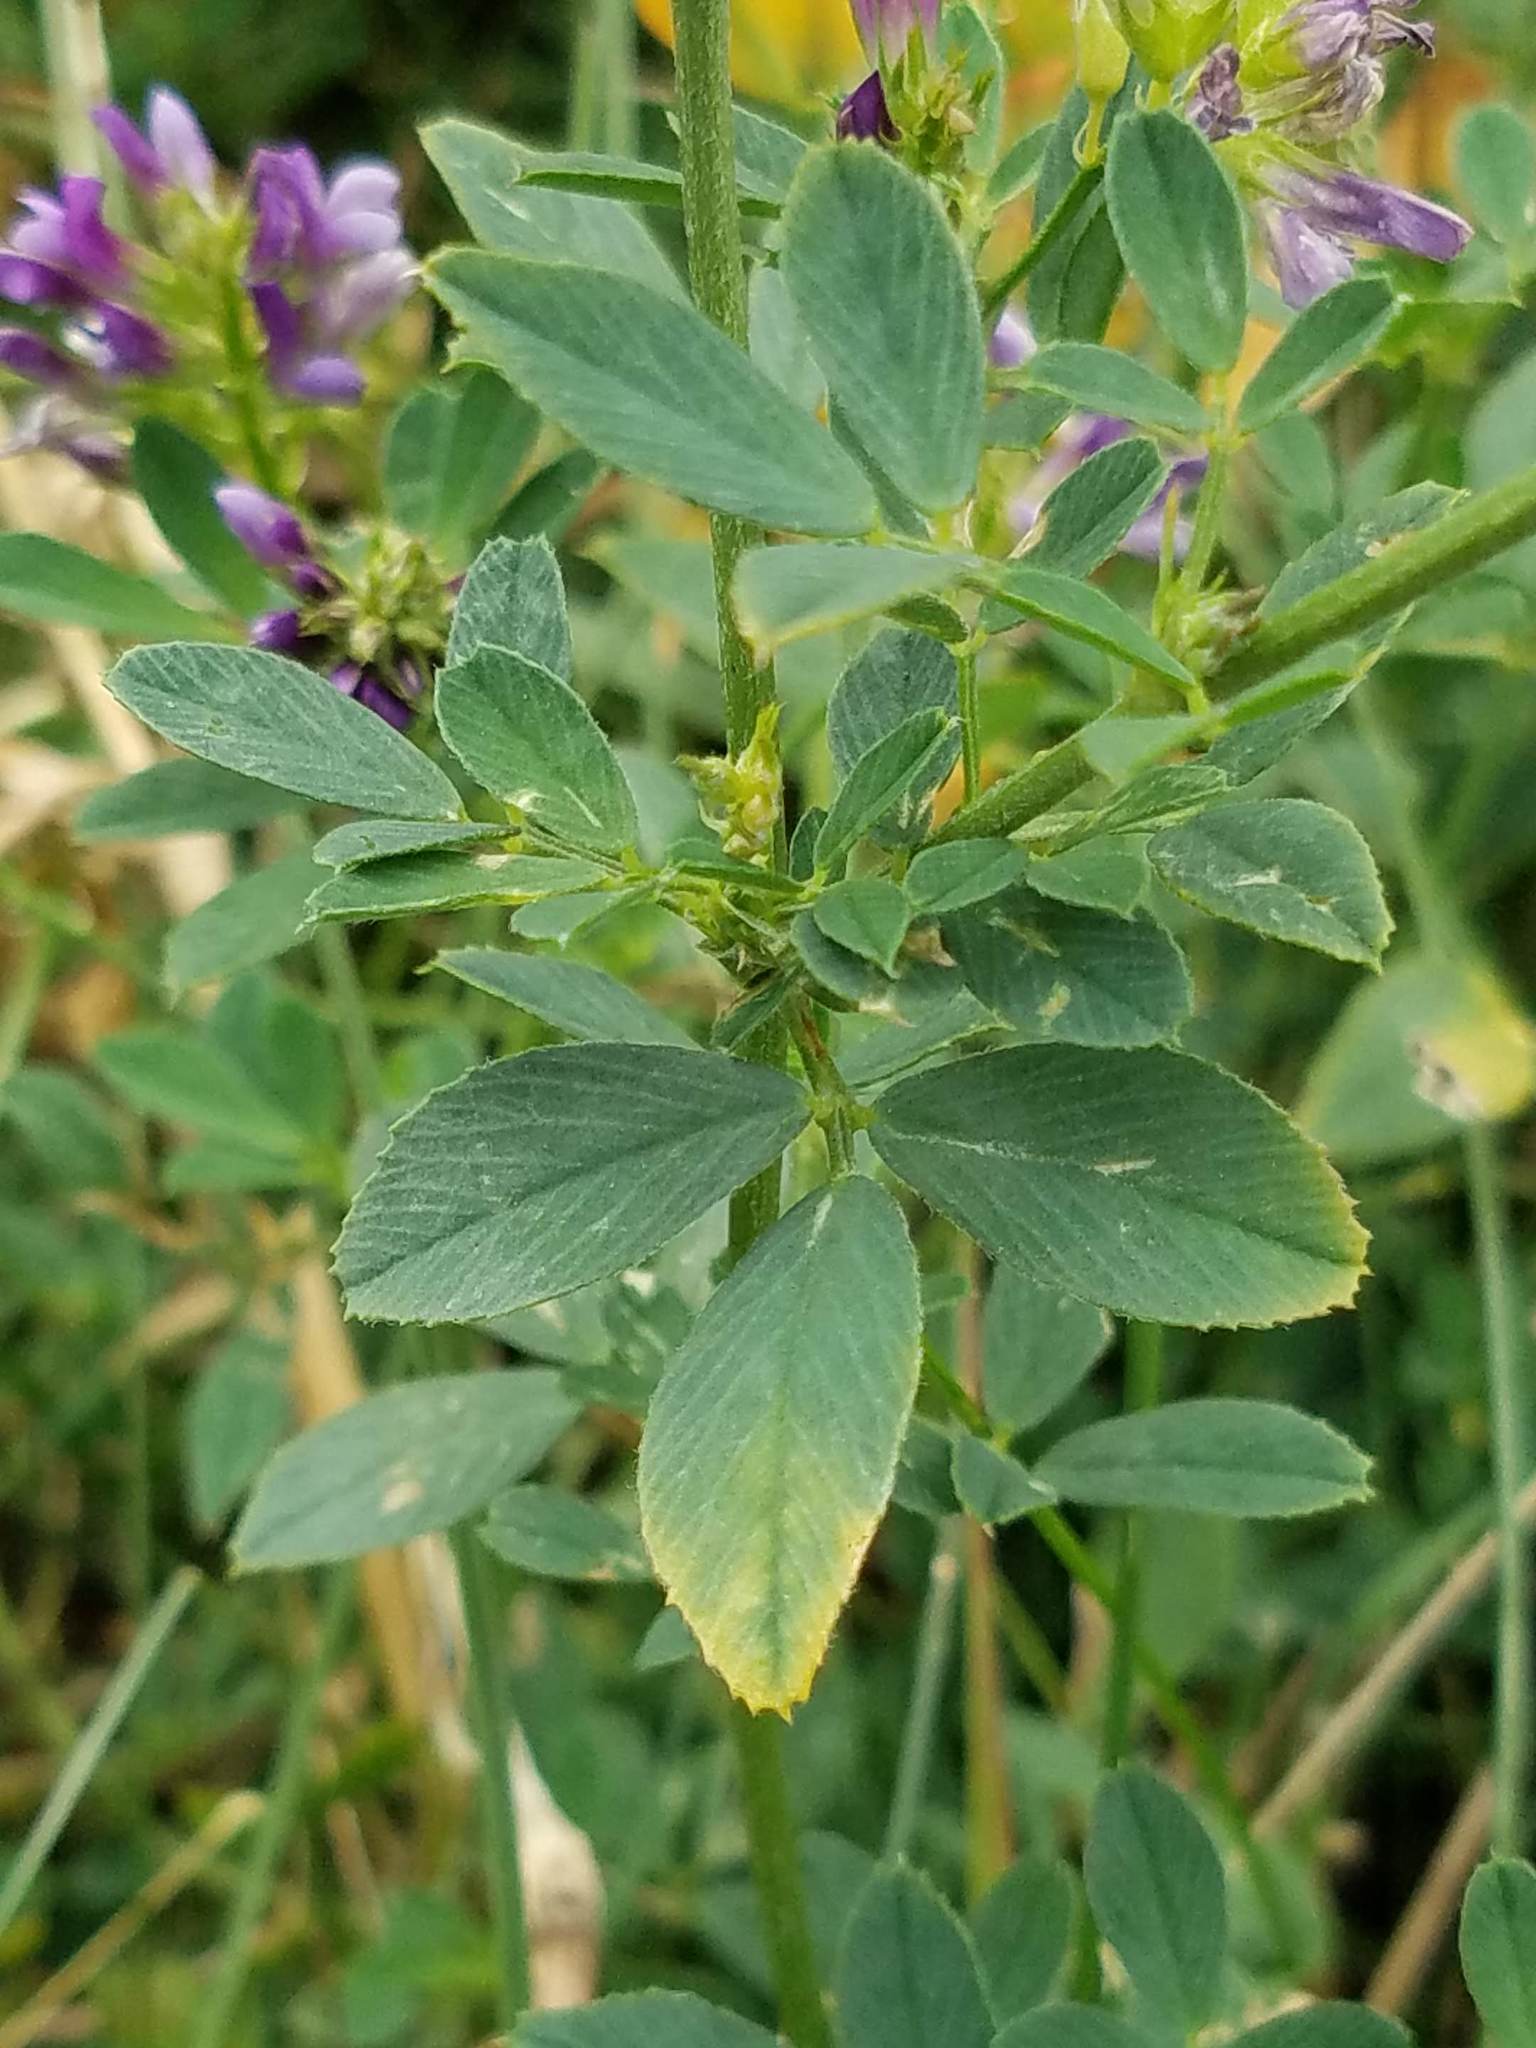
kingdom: Plantae
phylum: Tracheophyta
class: Magnoliopsida
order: Fabales
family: Fabaceae
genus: Medicago
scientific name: Medicago sativa
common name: Alfalfa
